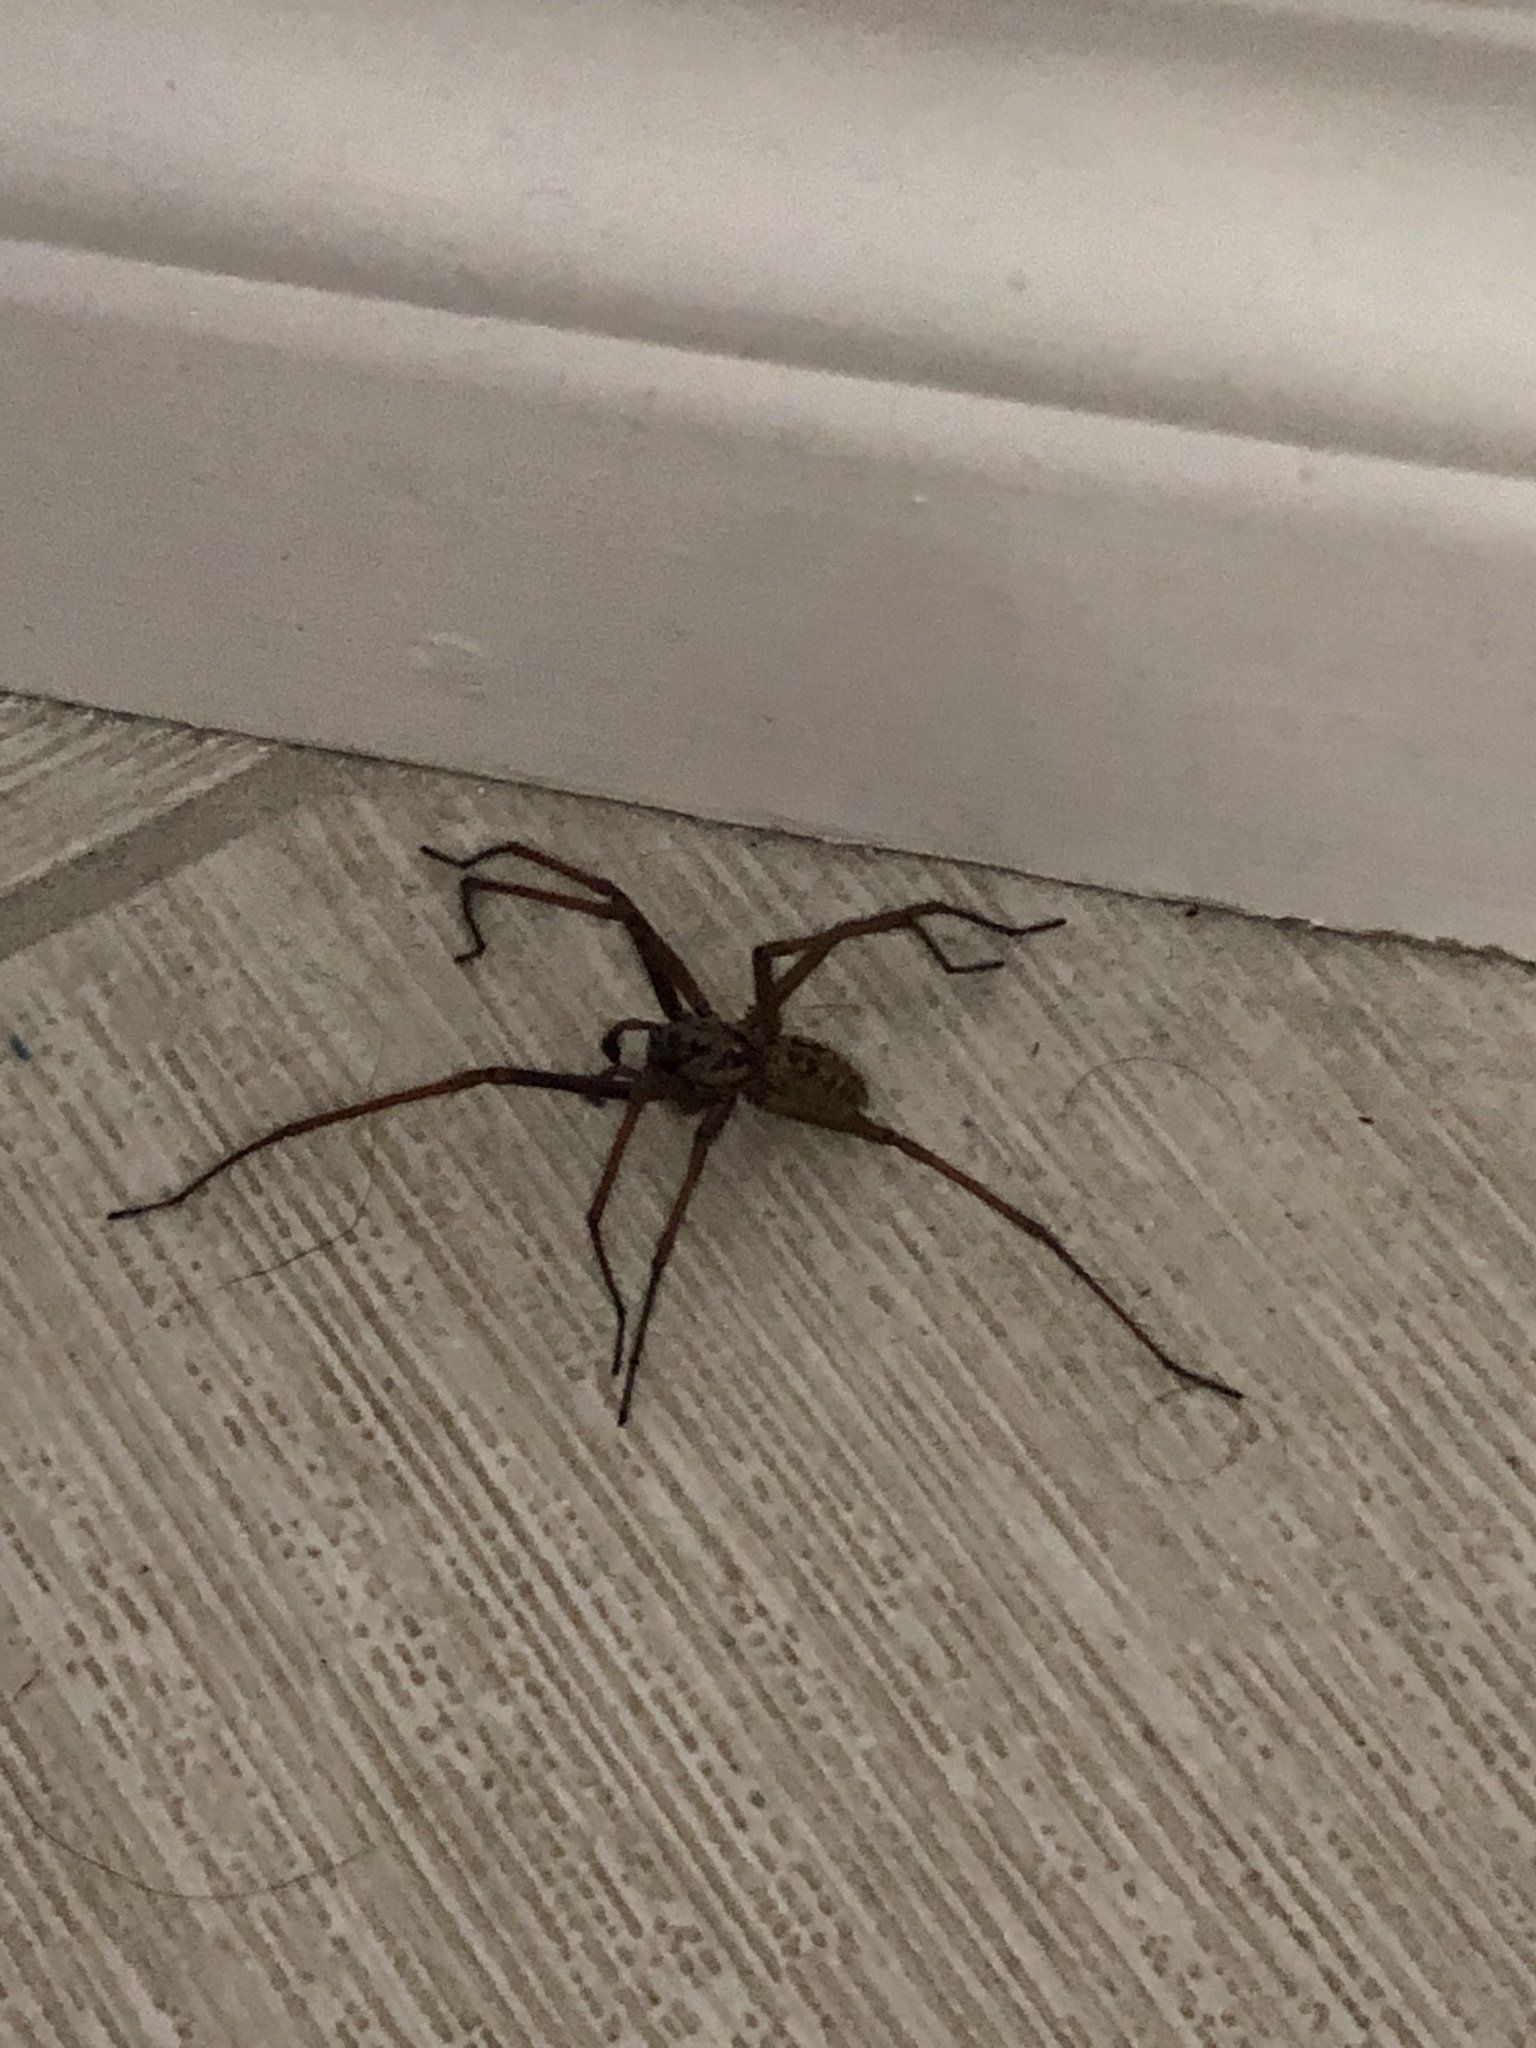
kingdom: Animalia
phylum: Arthropoda
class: Arachnida
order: Araneae
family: Agelenidae
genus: Eratigena
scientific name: Eratigena duellica
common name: Giant house spider
